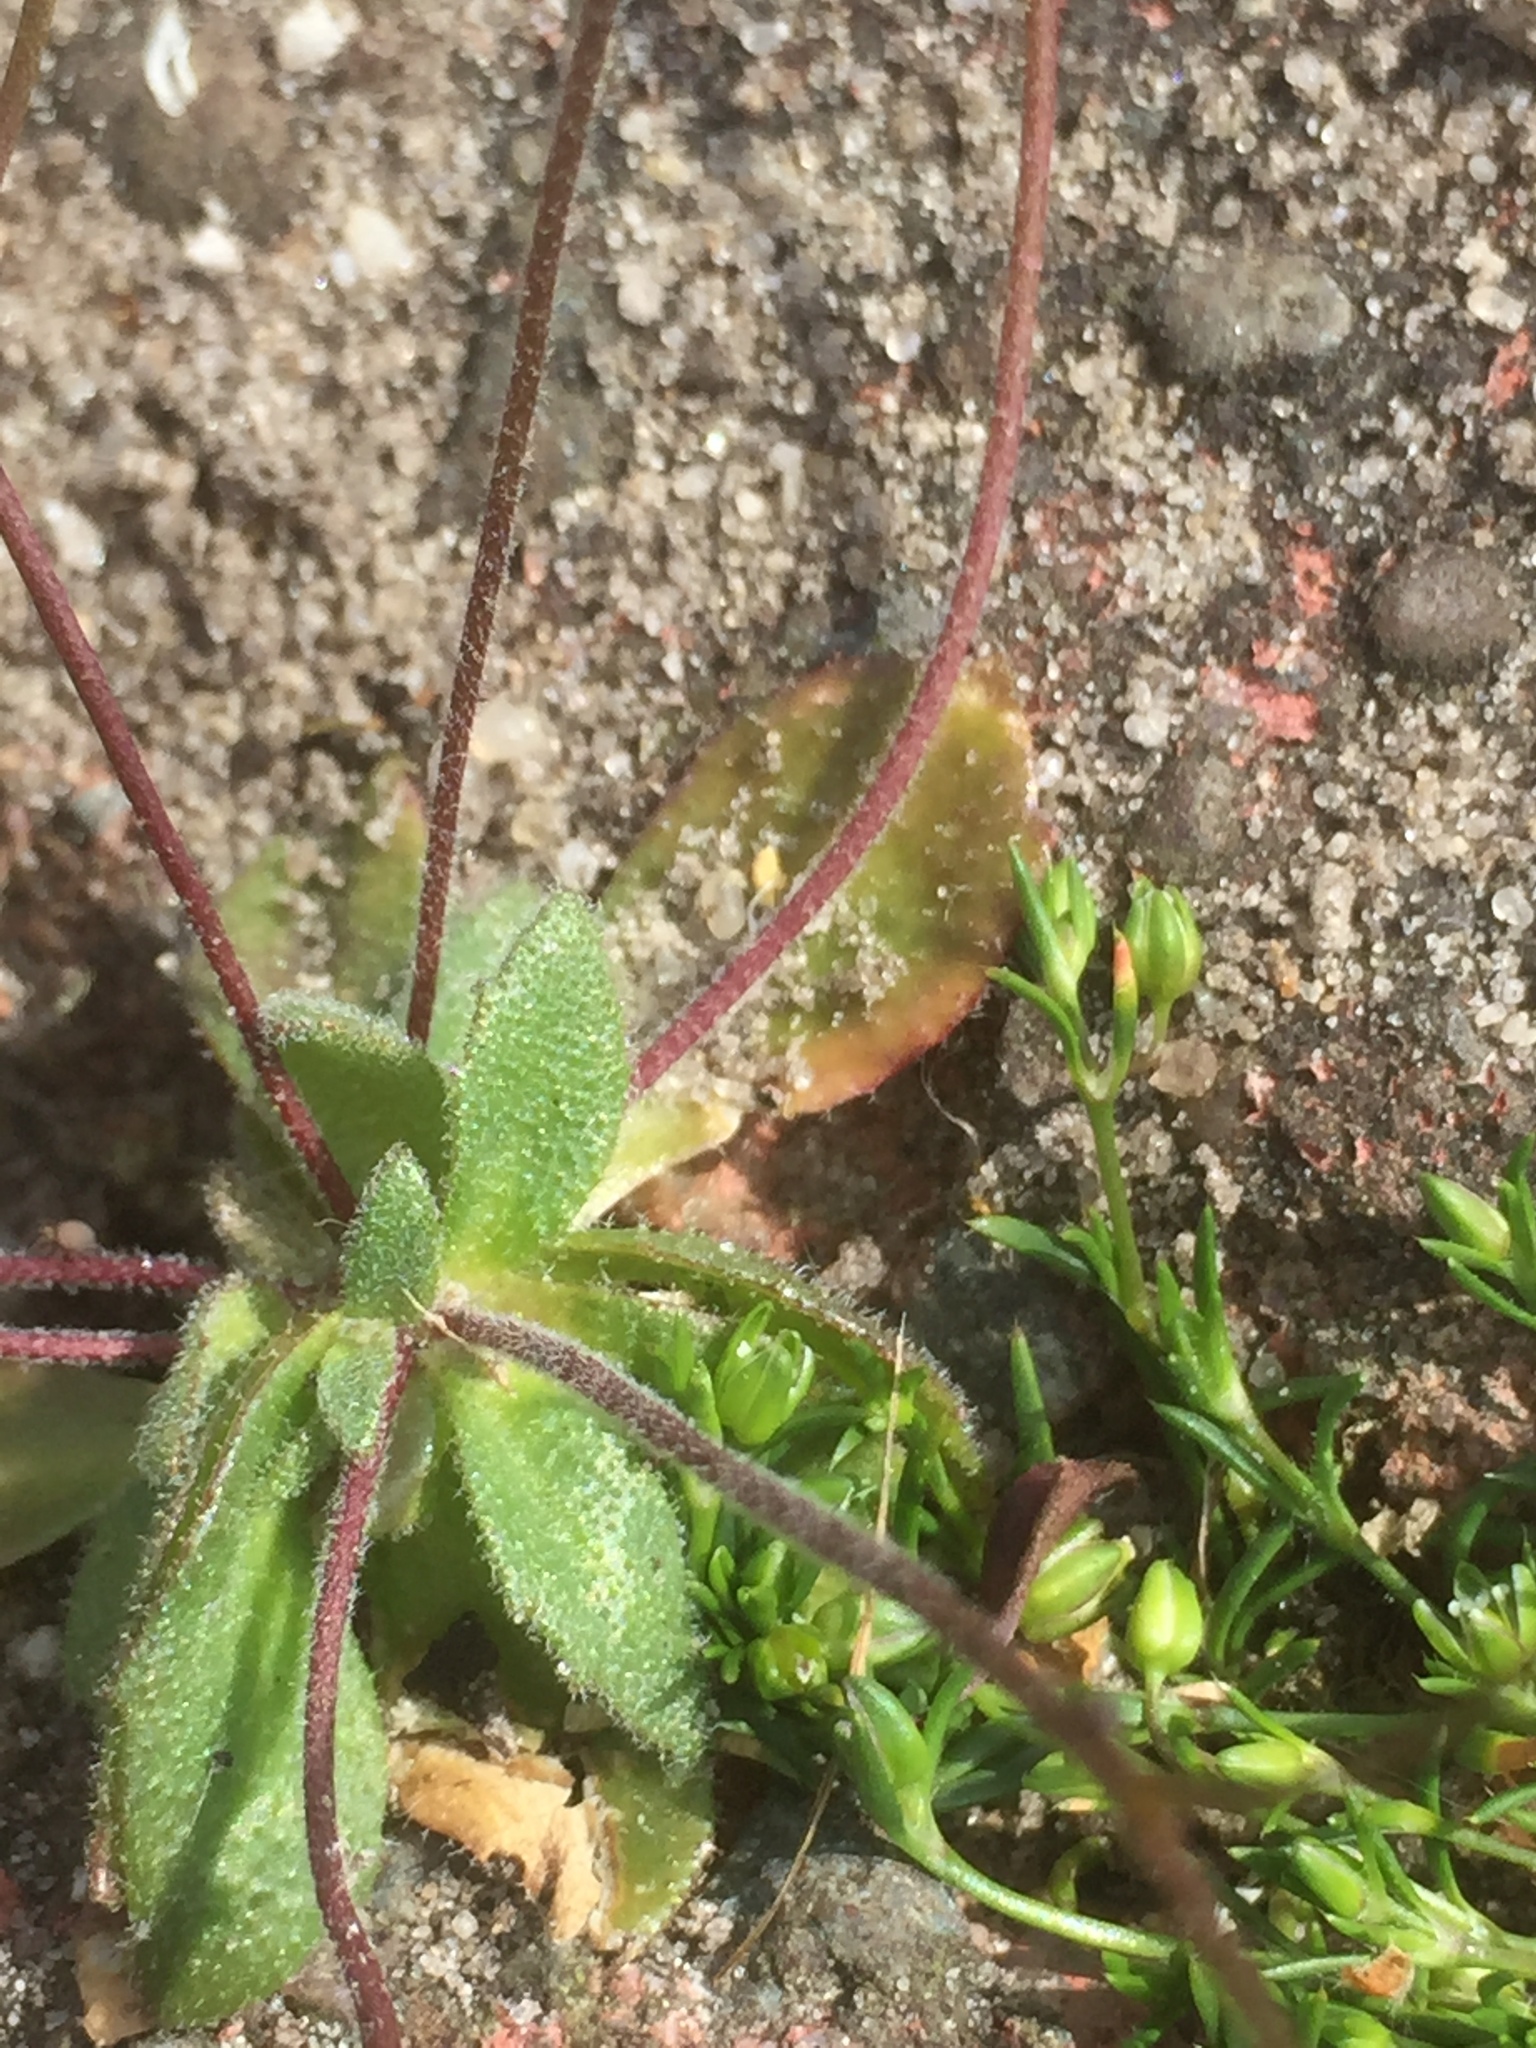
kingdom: Plantae
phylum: Tracheophyta
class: Magnoliopsida
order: Brassicales
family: Brassicaceae
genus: Draba
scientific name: Draba verna
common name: Spring draba
